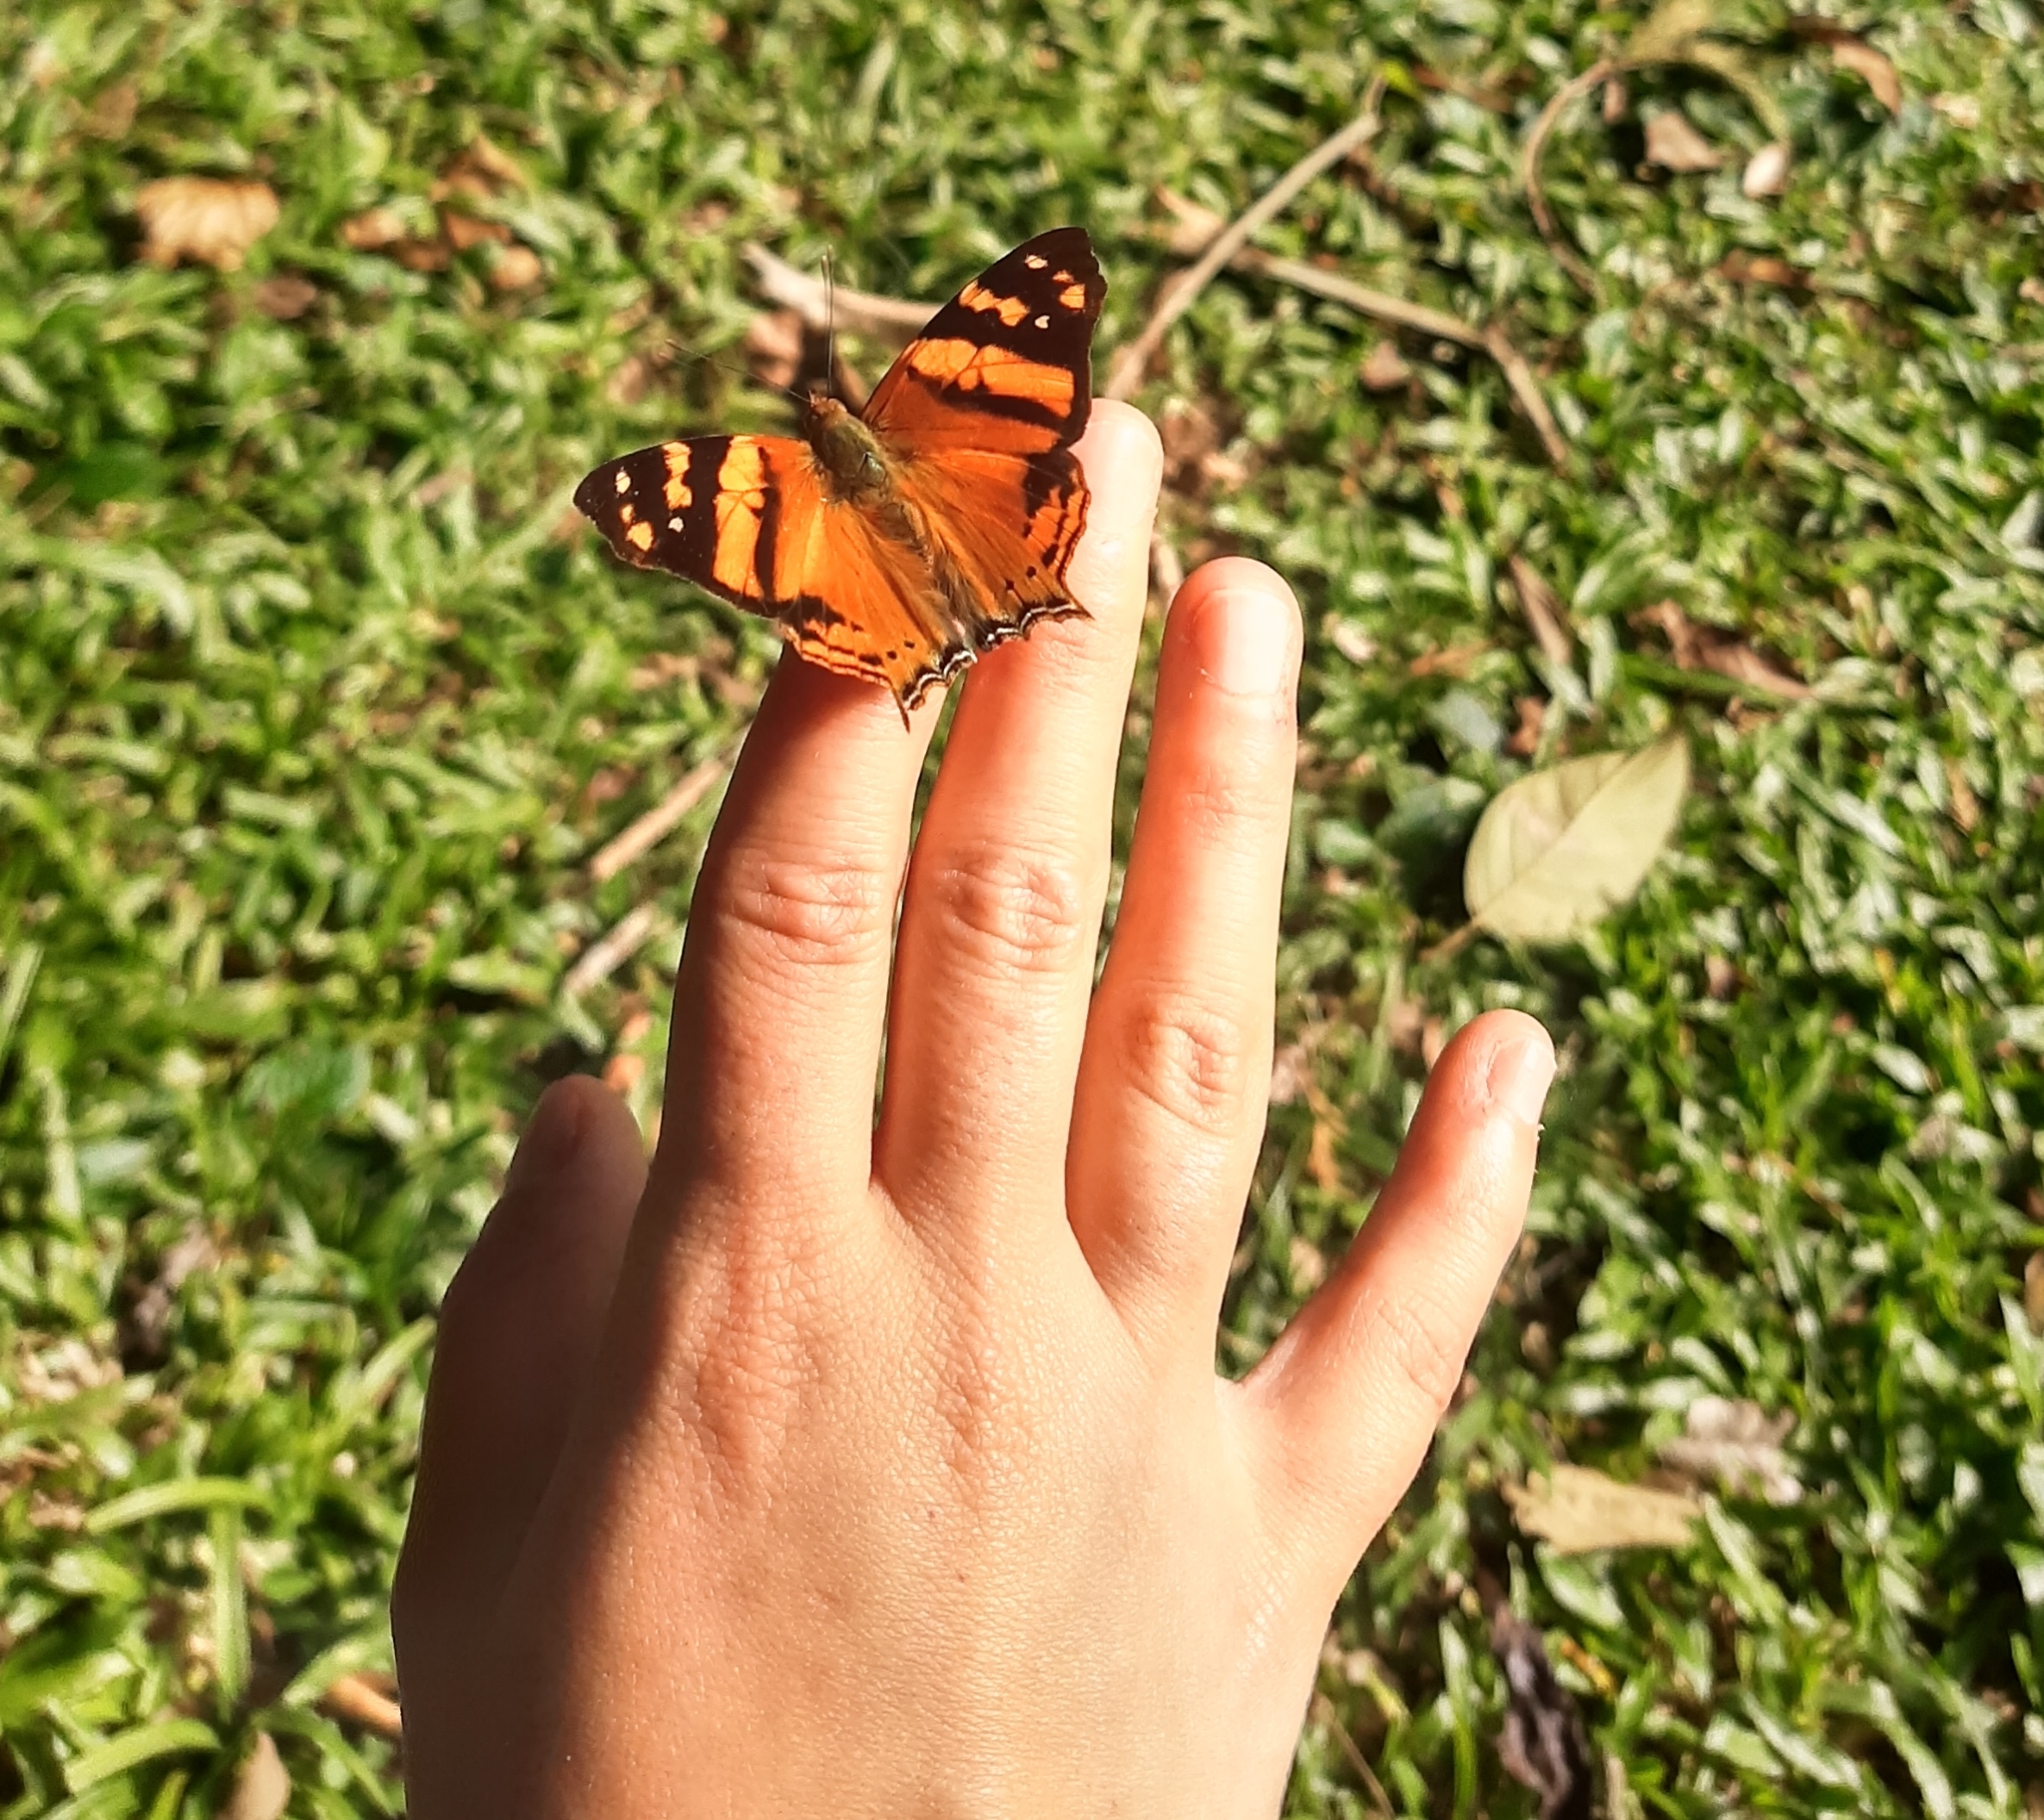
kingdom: Animalia
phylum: Arthropoda
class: Insecta
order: Lepidoptera
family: Nymphalidae
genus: Hypanartia
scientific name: Hypanartia lethe
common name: Orange mapwing
